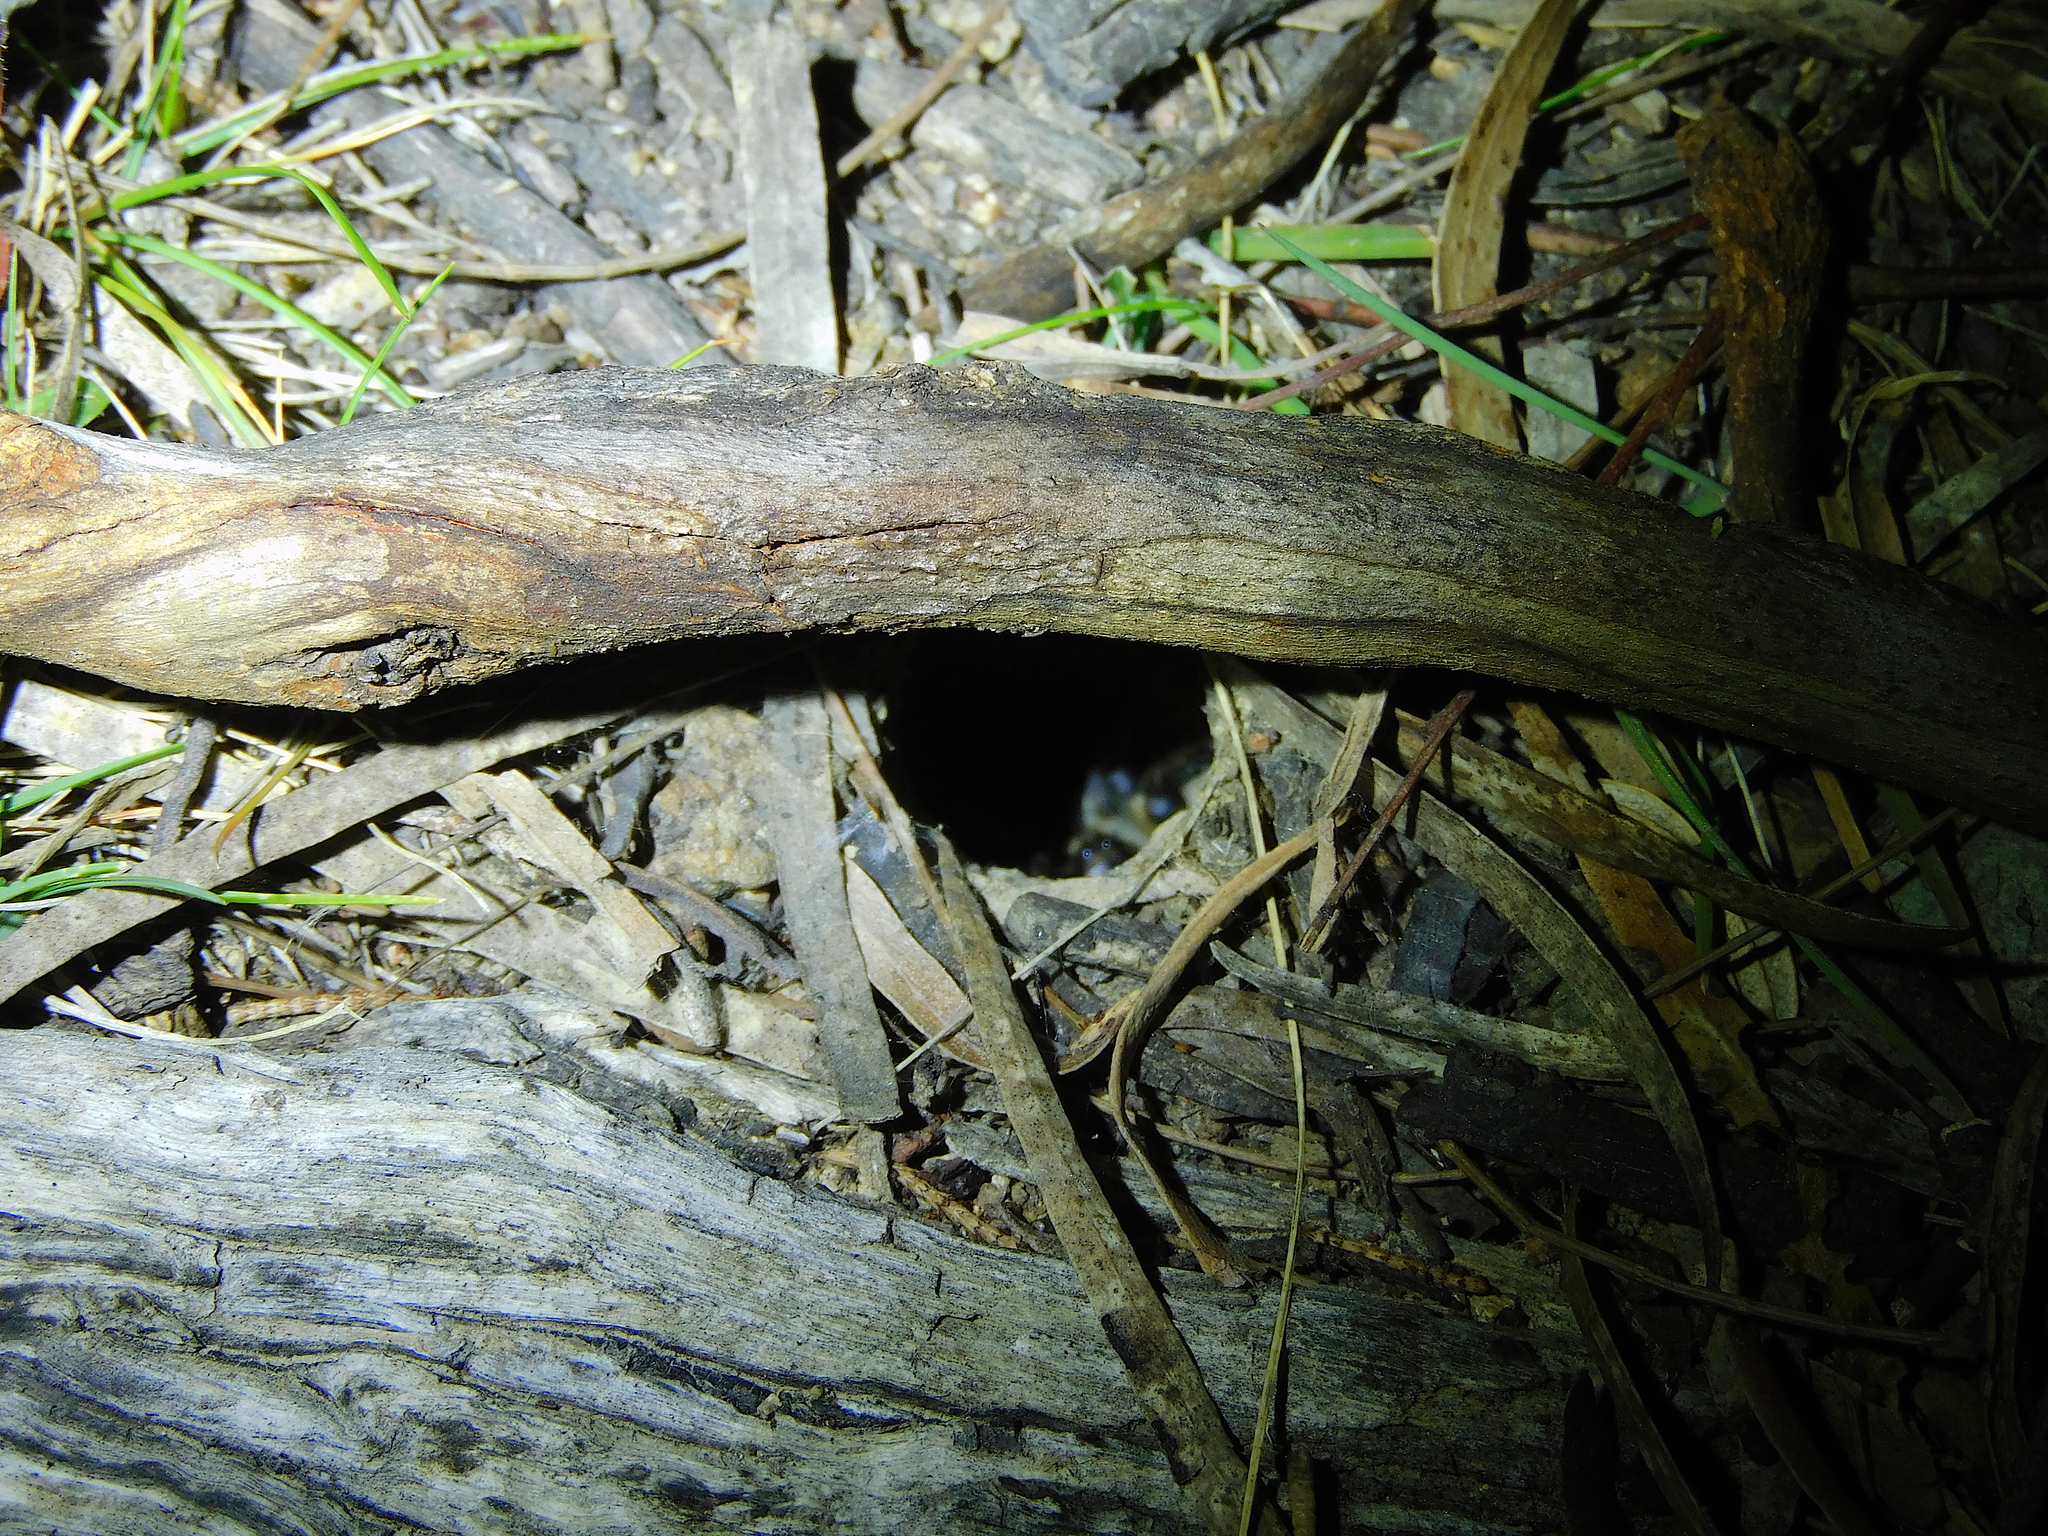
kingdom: Animalia
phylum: Arthropoda
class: Arachnida
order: Araneae
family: Lycosidae
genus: Portacosa
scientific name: Portacosa cinerea
